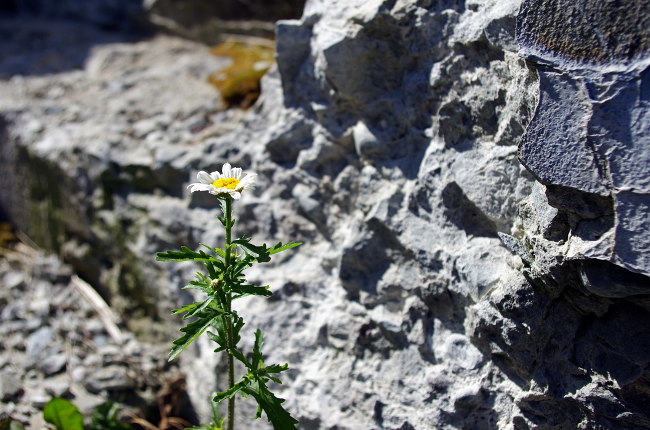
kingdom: Plantae
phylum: Tracheophyta
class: Magnoliopsida
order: Asterales
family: Asteraceae
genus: Leucanthemum
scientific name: Leucanthemum vulgare
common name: Oxeye daisy
